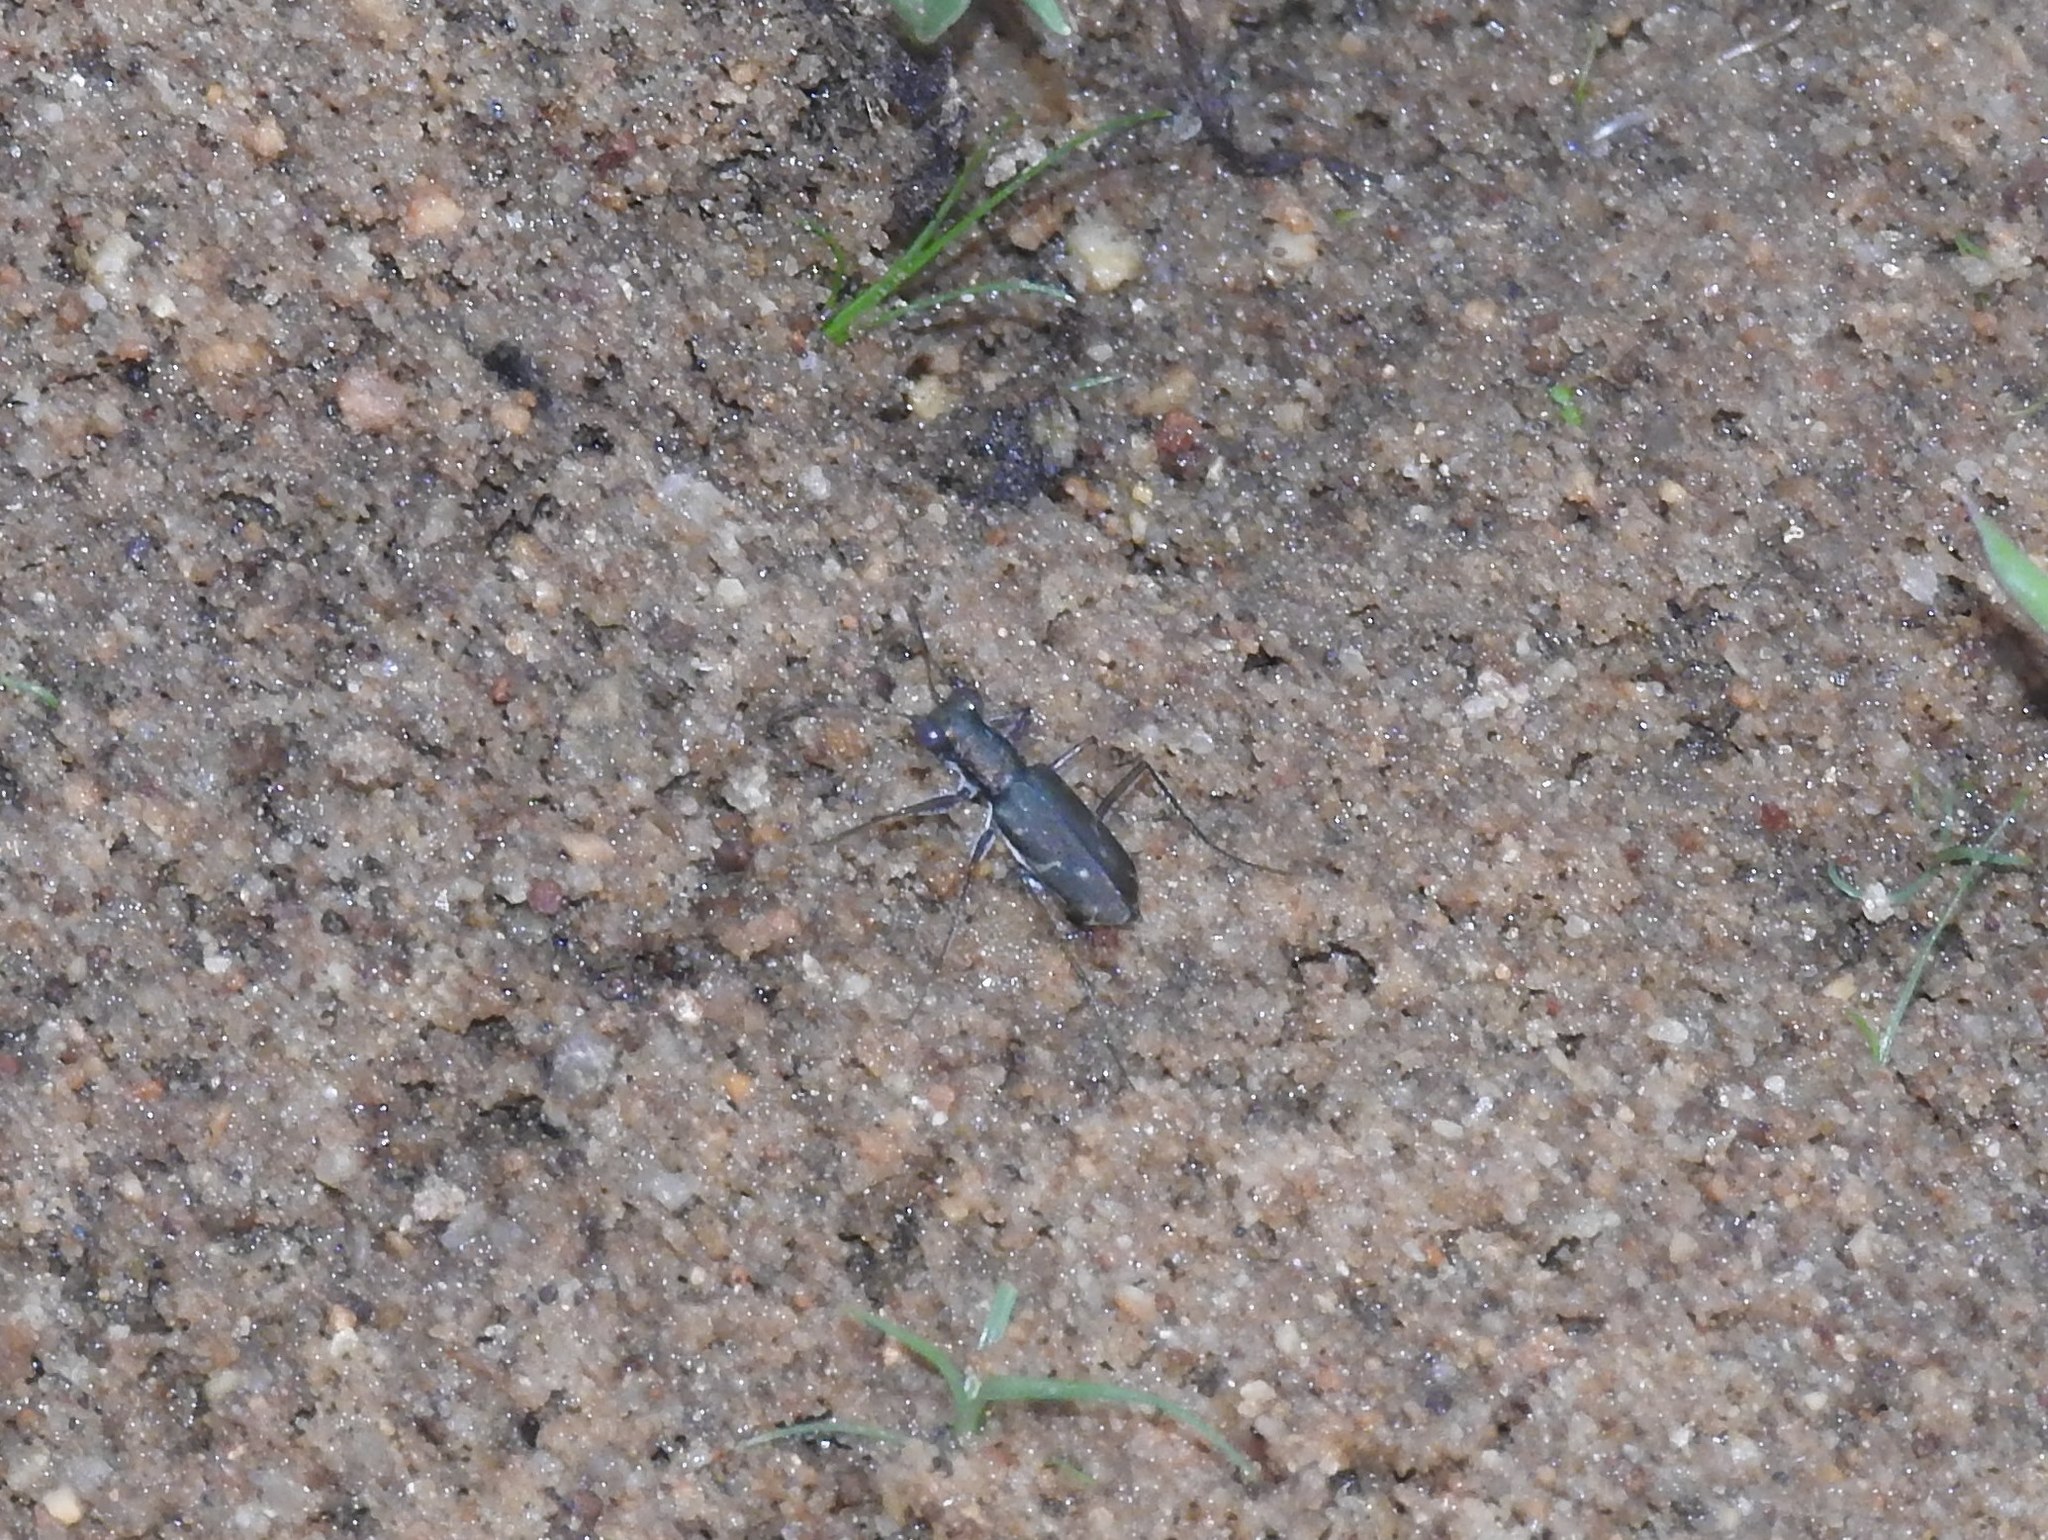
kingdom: Animalia
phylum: Arthropoda
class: Insecta
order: Coleoptera
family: Carabidae
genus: Myriochila
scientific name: Myriochila fastidiosa
